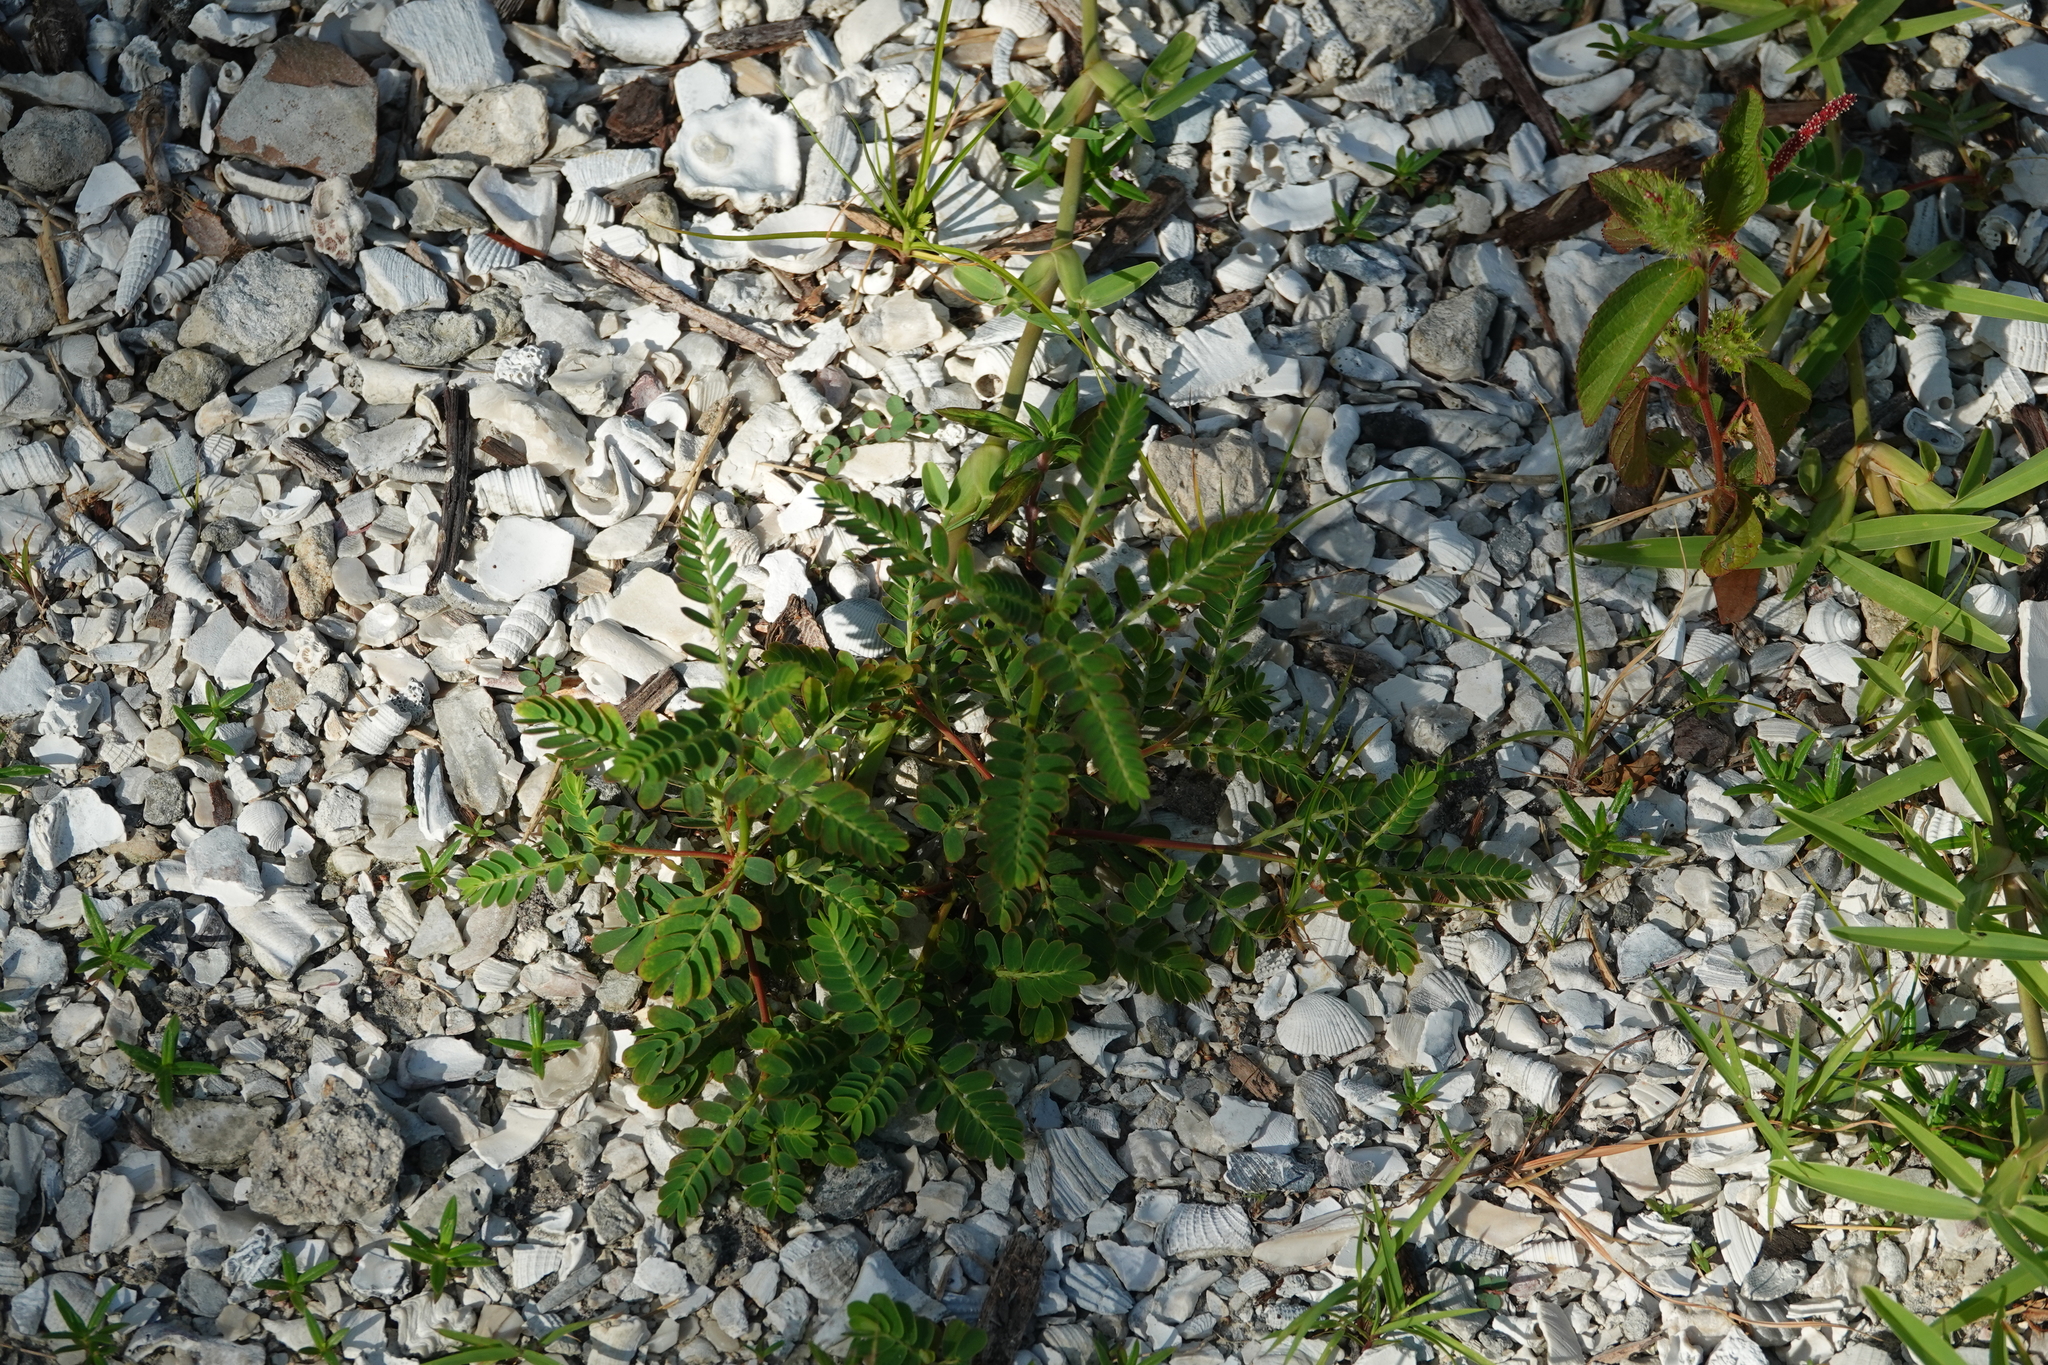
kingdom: Plantae
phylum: Tracheophyta
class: Magnoliopsida
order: Malpighiales
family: Phyllanthaceae
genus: Phyllanthus
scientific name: Phyllanthus urinaria
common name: Chamber bitter
